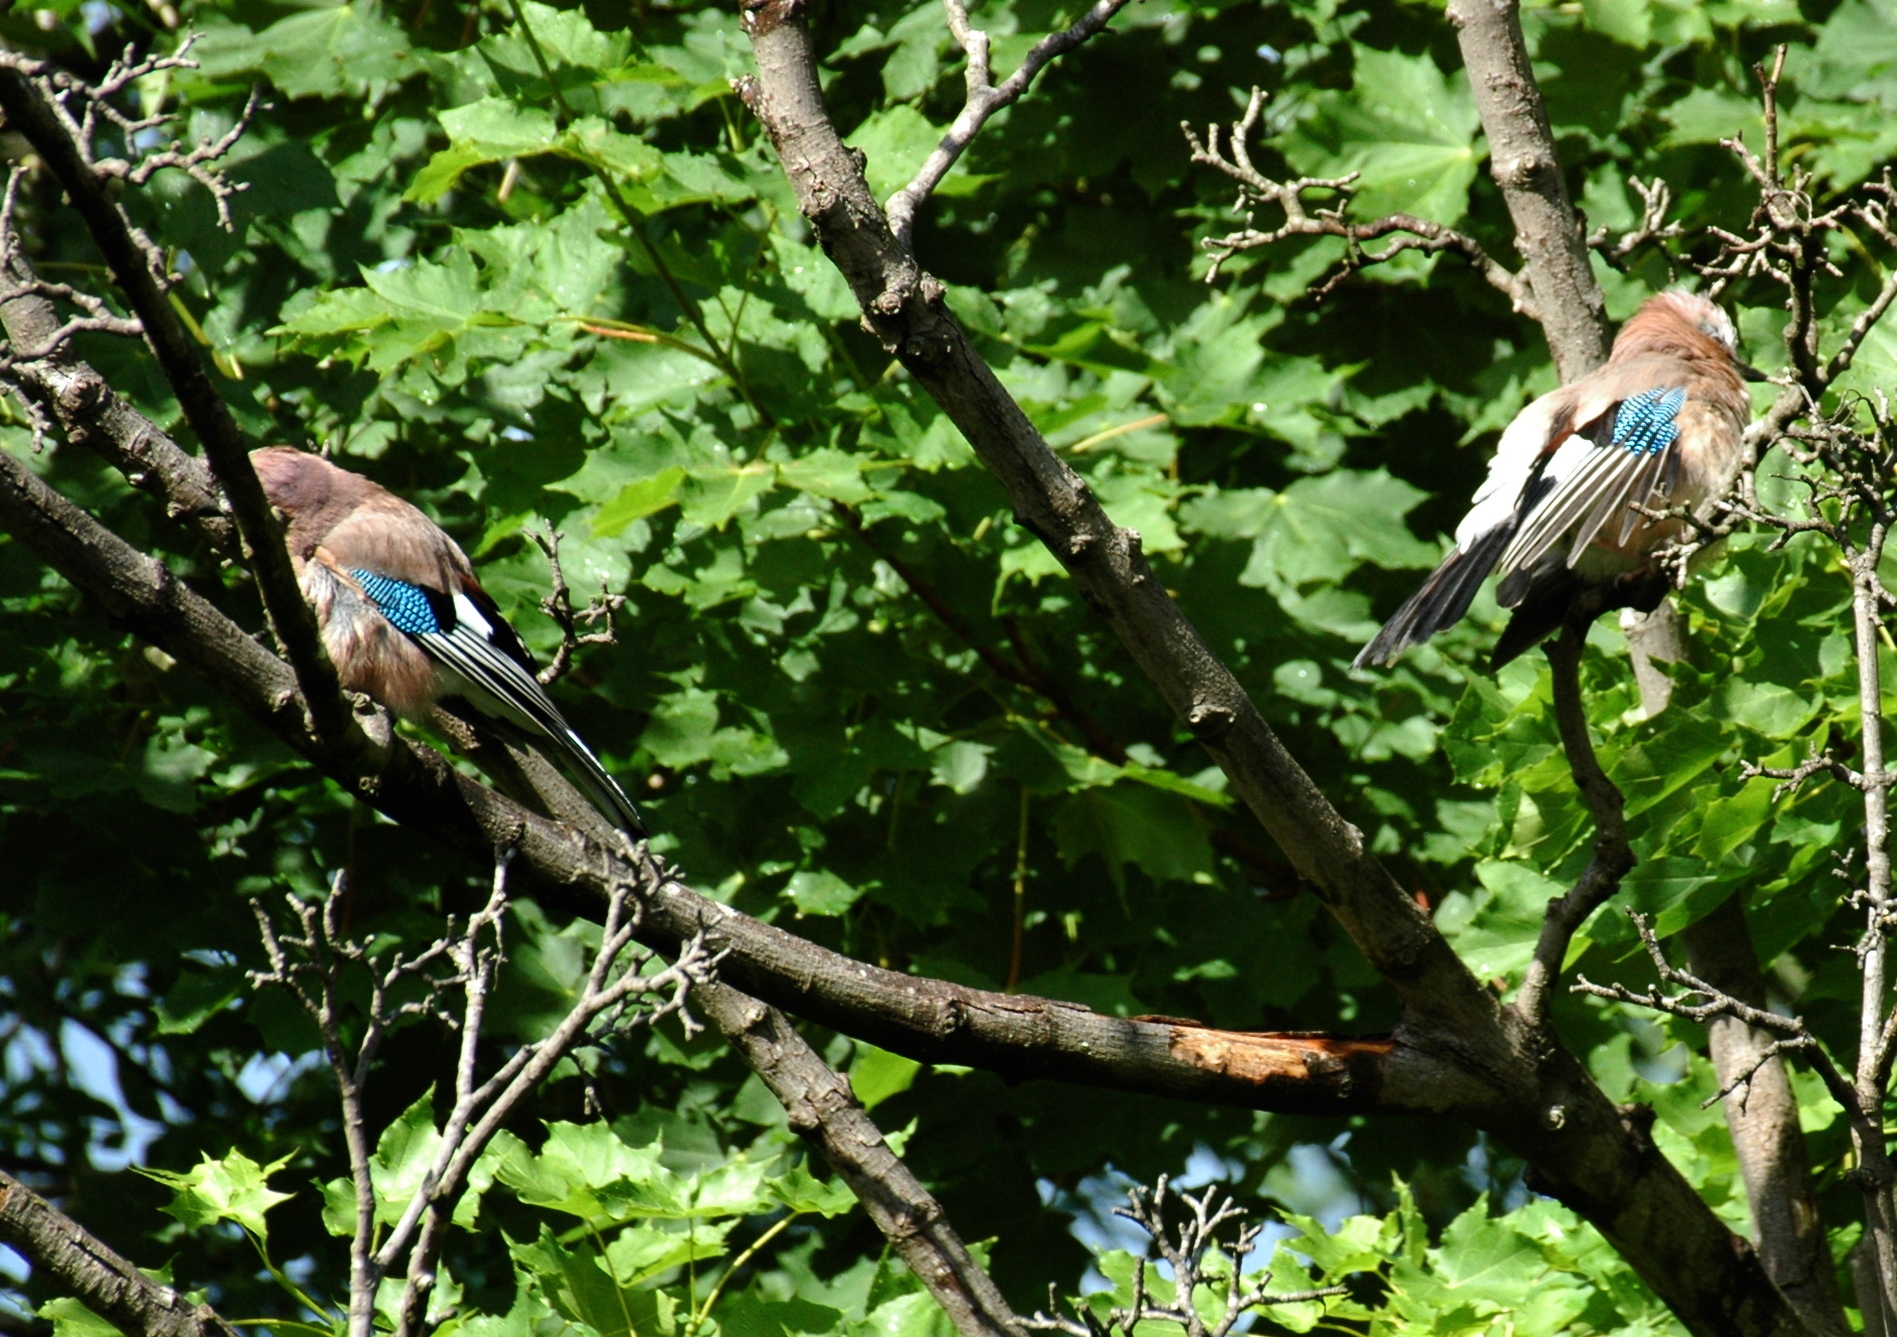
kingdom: Animalia
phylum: Chordata
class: Aves
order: Passeriformes
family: Corvidae
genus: Garrulus
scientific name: Garrulus glandarius
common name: Eurasian jay
